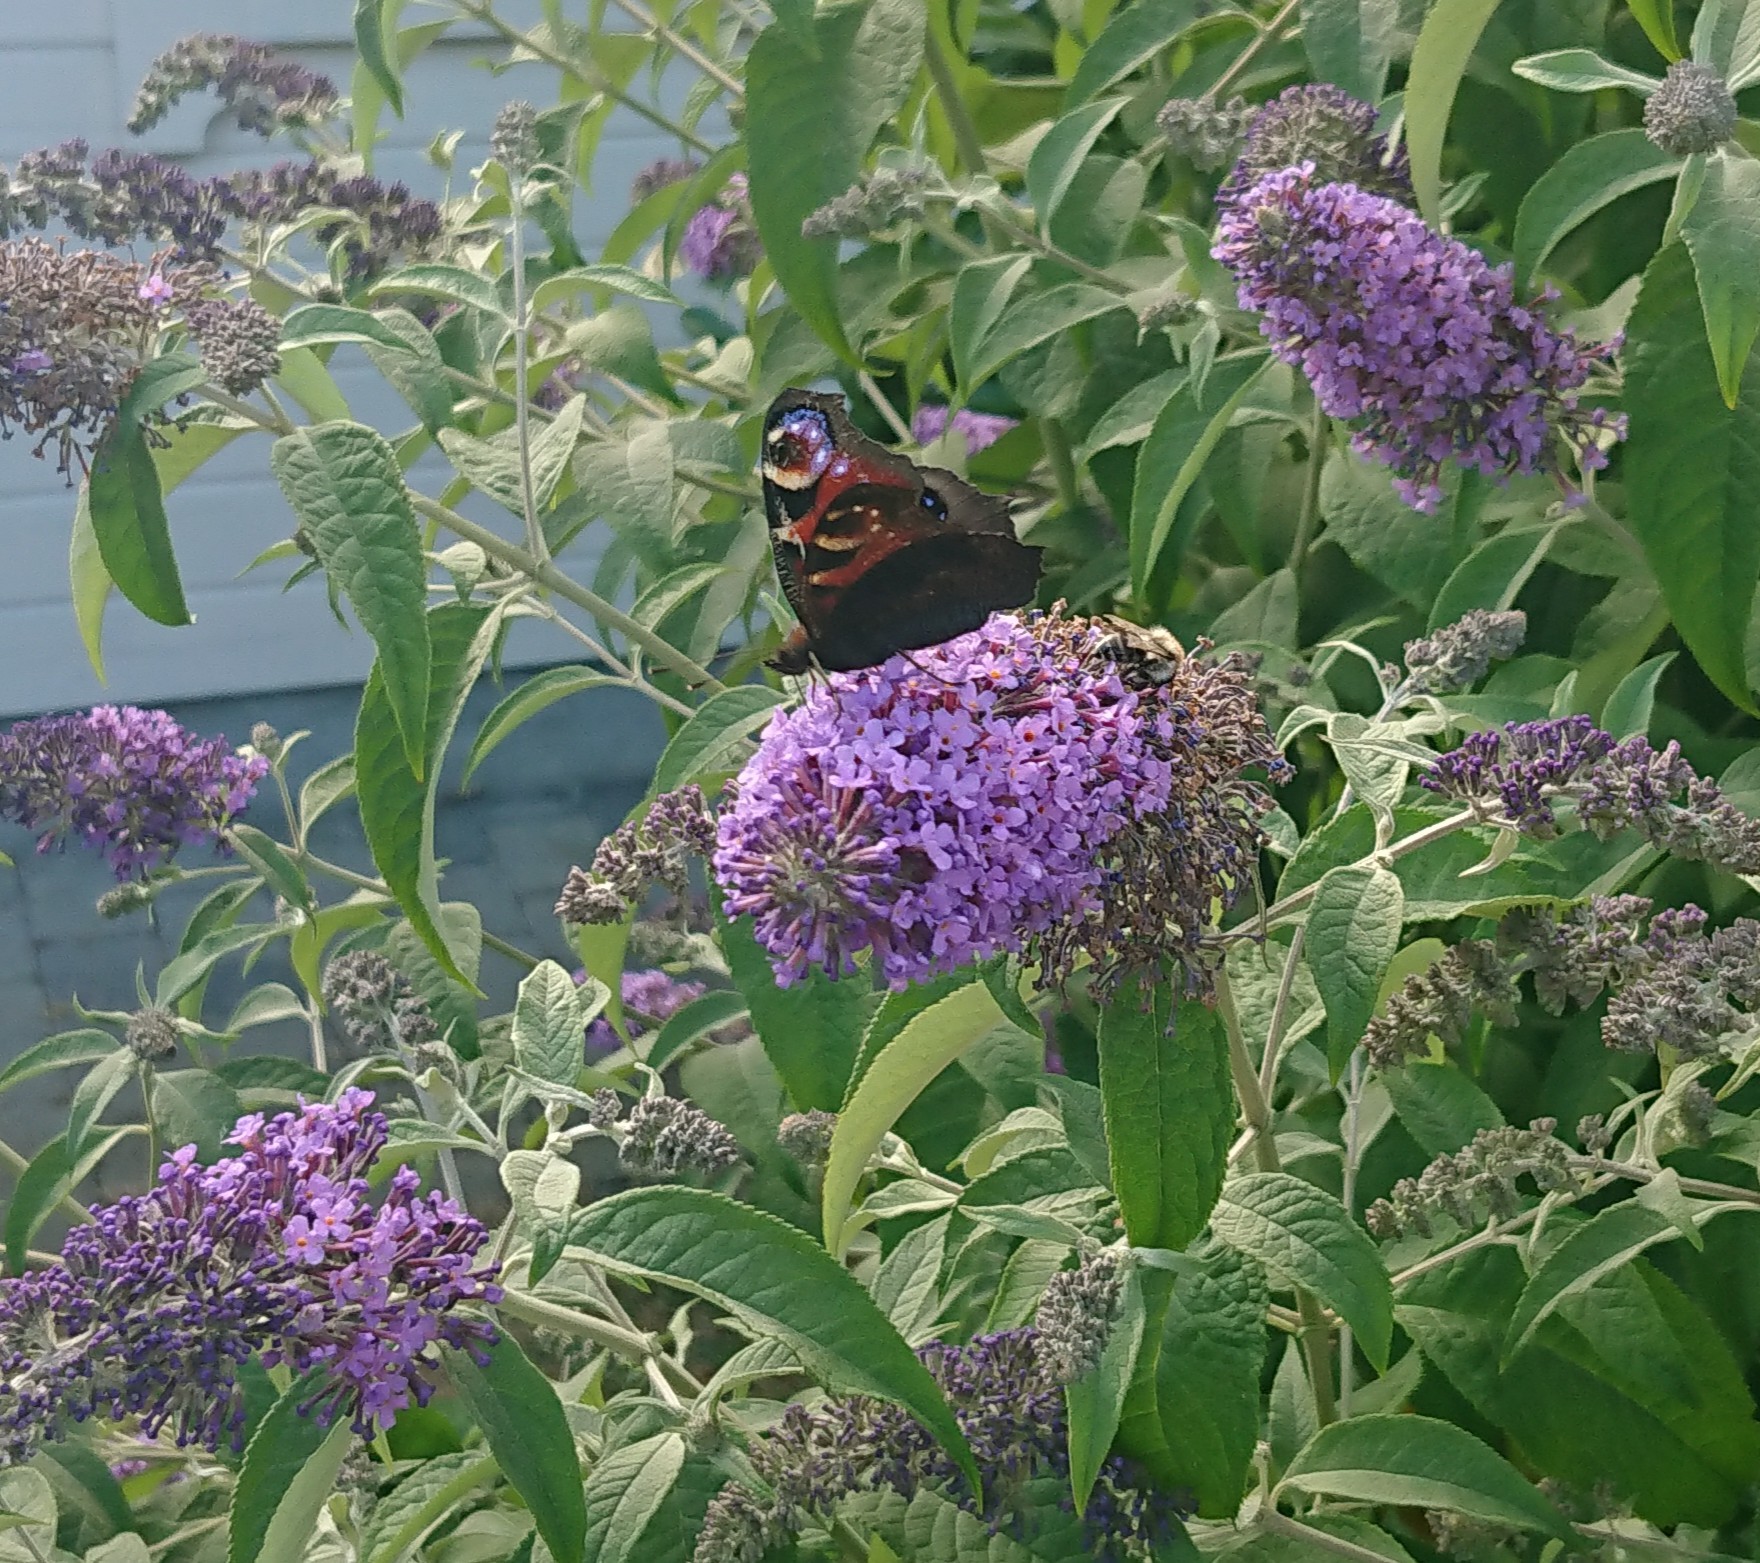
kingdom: Animalia
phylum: Arthropoda
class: Insecta
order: Lepidoptera
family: Nymphalidae
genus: Aglais
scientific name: Aglais io
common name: Peacock
